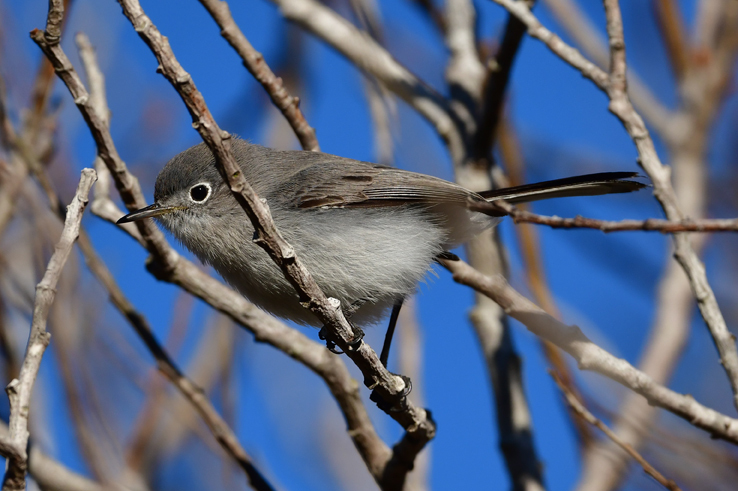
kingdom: Animalia
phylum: Chordata
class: Aves
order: Passeriformes
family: Polioptilidae
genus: Polioptila
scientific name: Polioptila caerulea
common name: Blue-gray gnatcatcher
